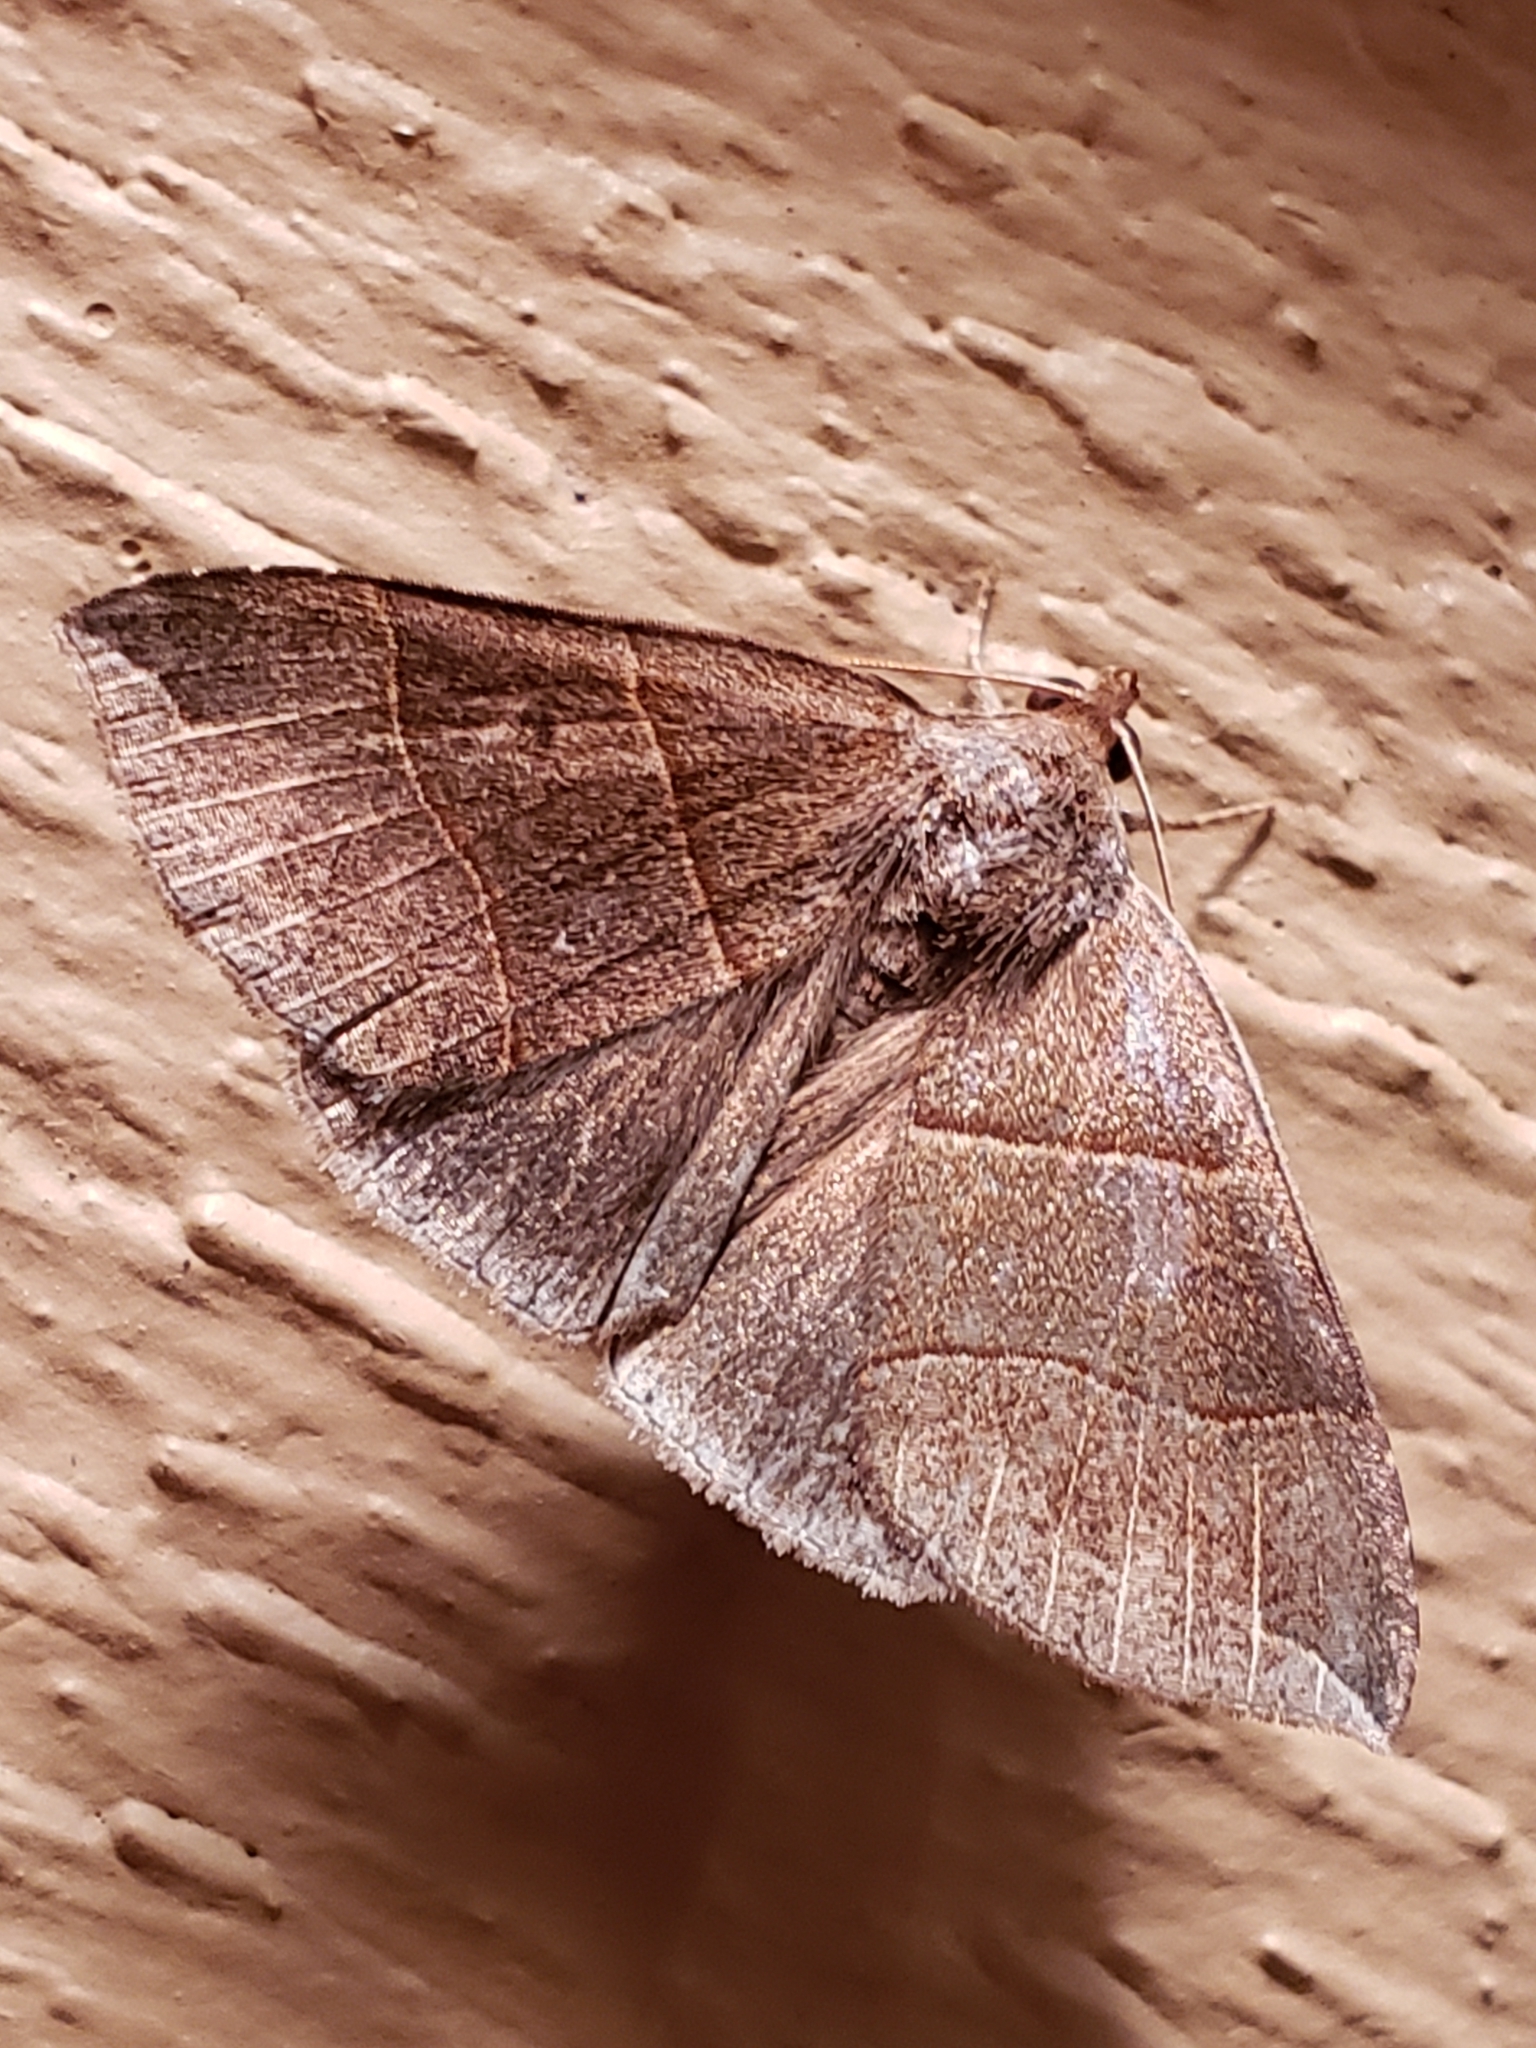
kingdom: Animalia
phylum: Arthropoda
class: Insecta
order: Lepidoptera
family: Erebidae
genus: Parallelia
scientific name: Parallelia bistriaris
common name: Maple looper moth
